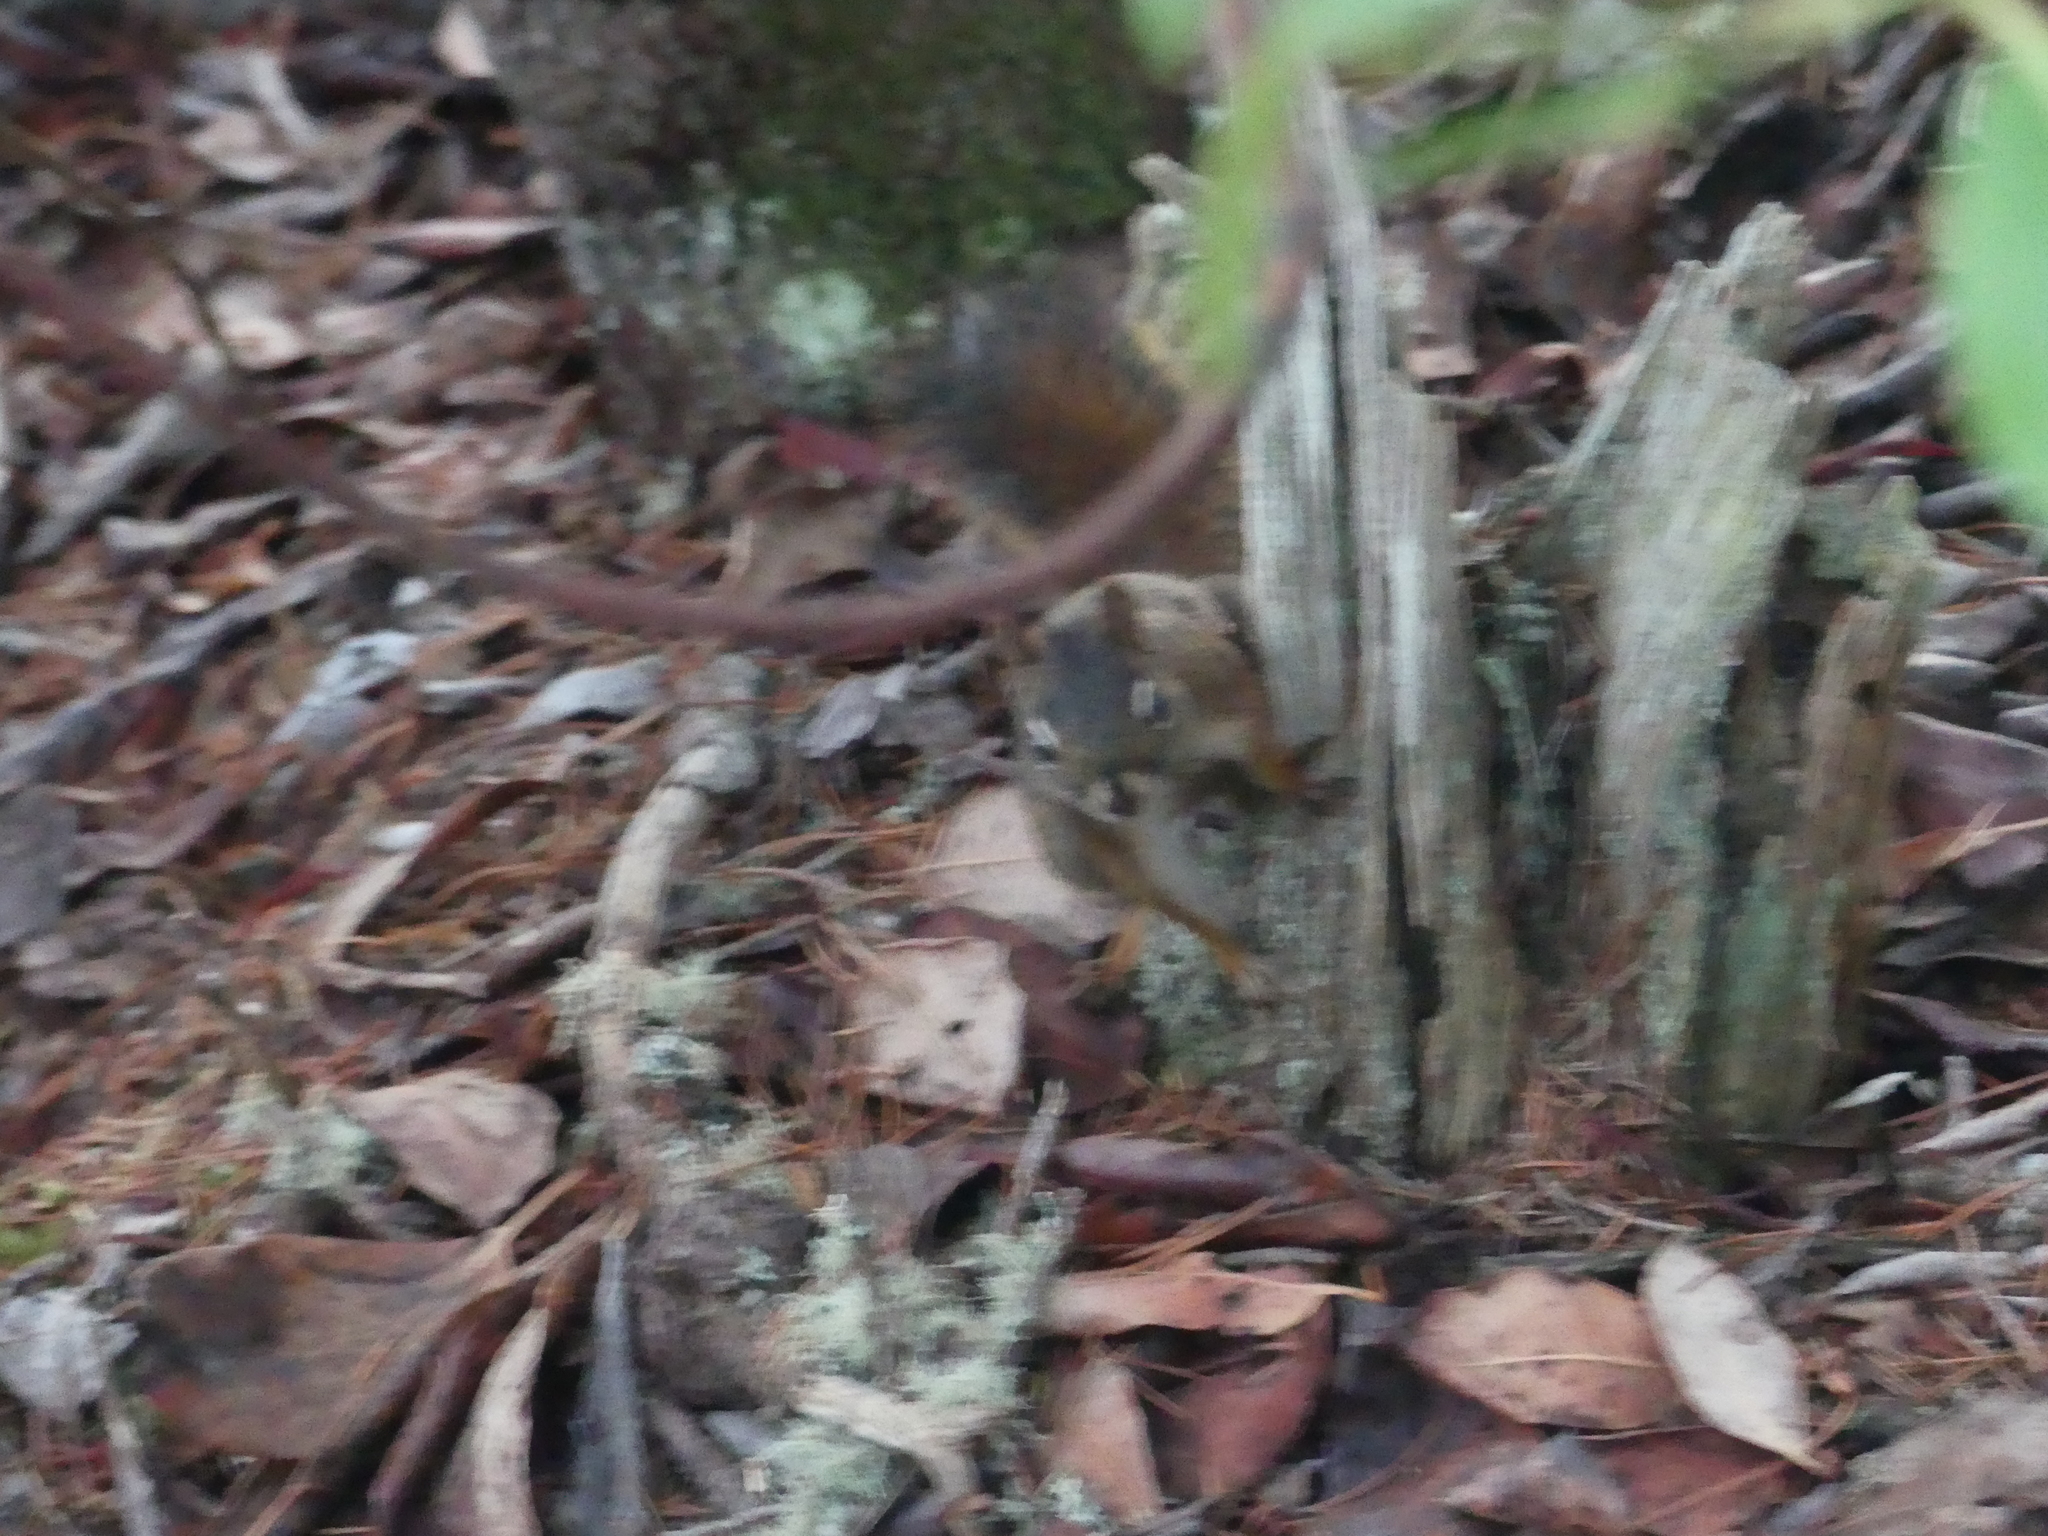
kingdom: Animalia
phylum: Chordata
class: Mammalia
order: Rodentia
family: Sciuridae
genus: Tamiasciurus
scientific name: Tamiasciurus hudsonicus
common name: Red squirrel
